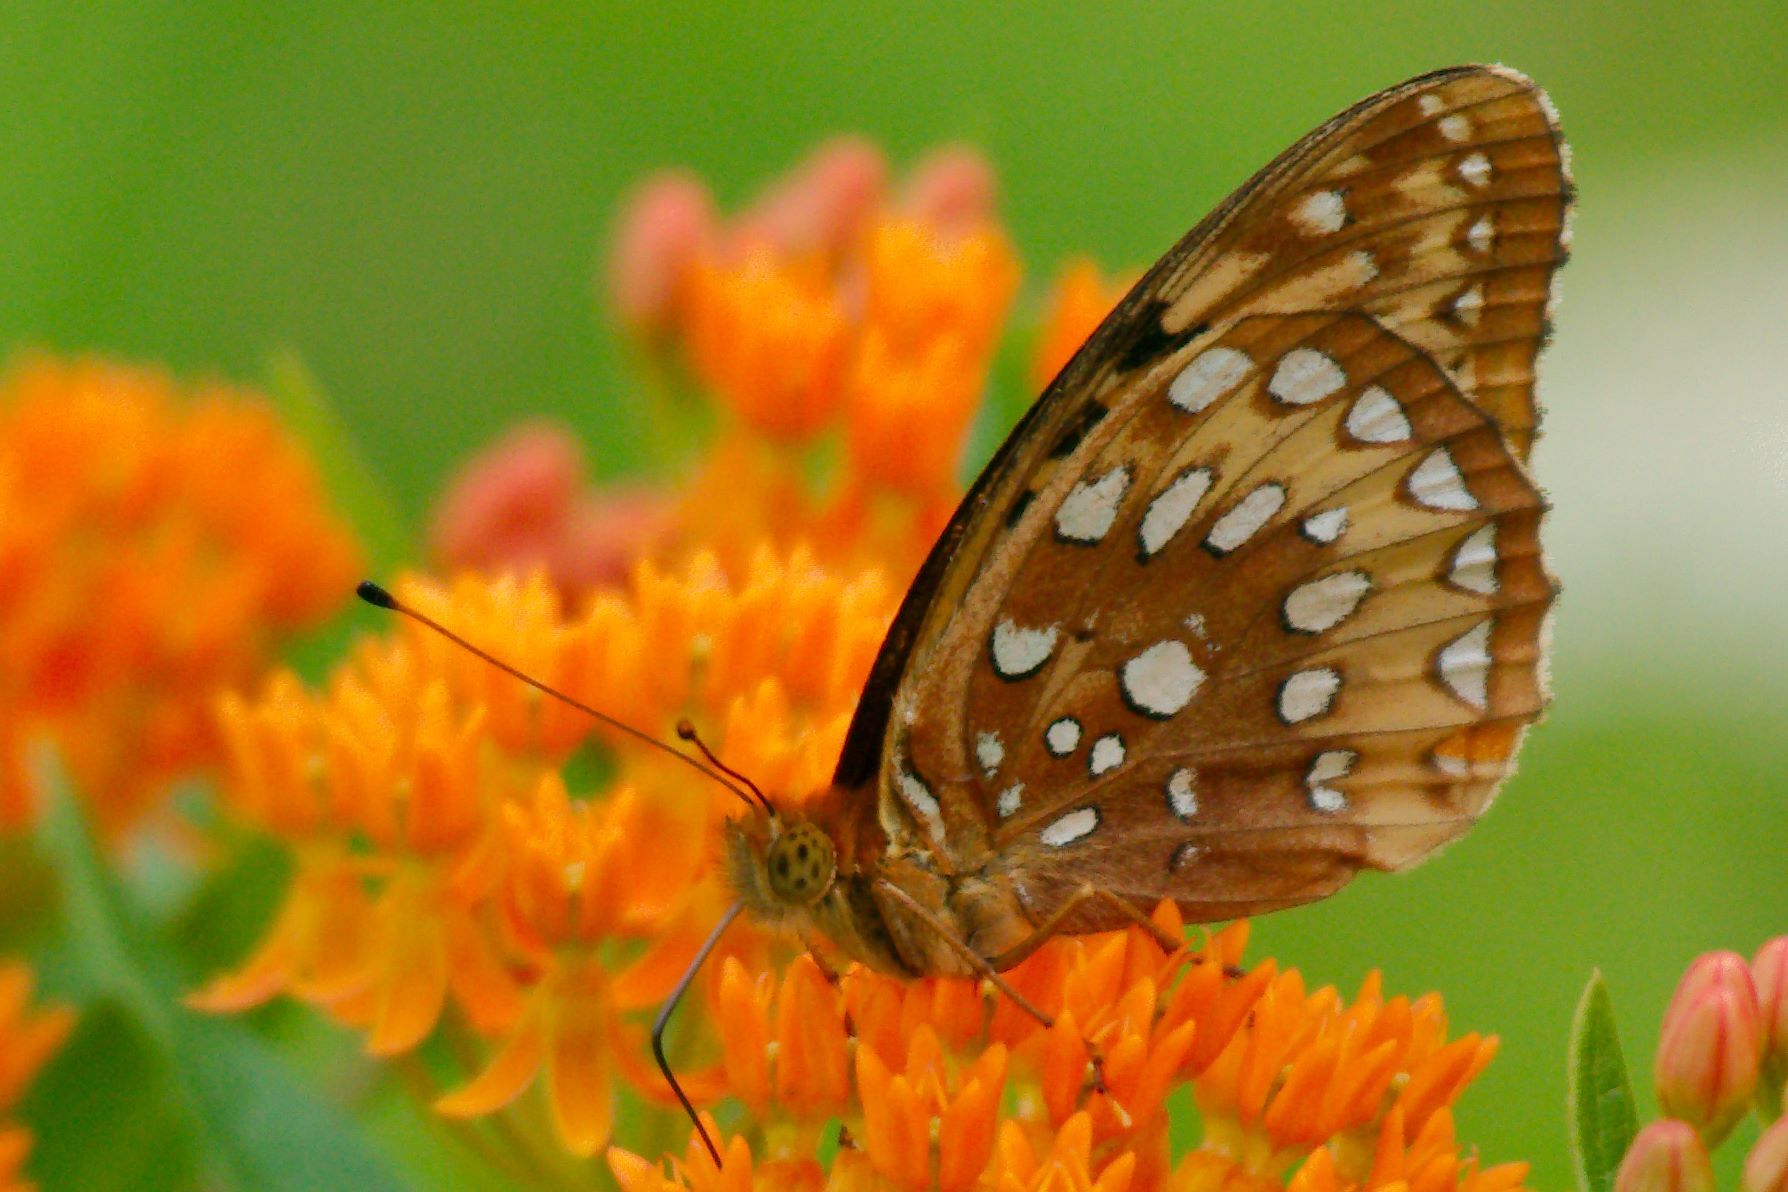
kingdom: Animalia
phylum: Arthropoda
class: Insecta
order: Lepidoptera
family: Nymphalidae
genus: Speyeria
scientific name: Speyeria cybele
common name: Great spangled fritillary
